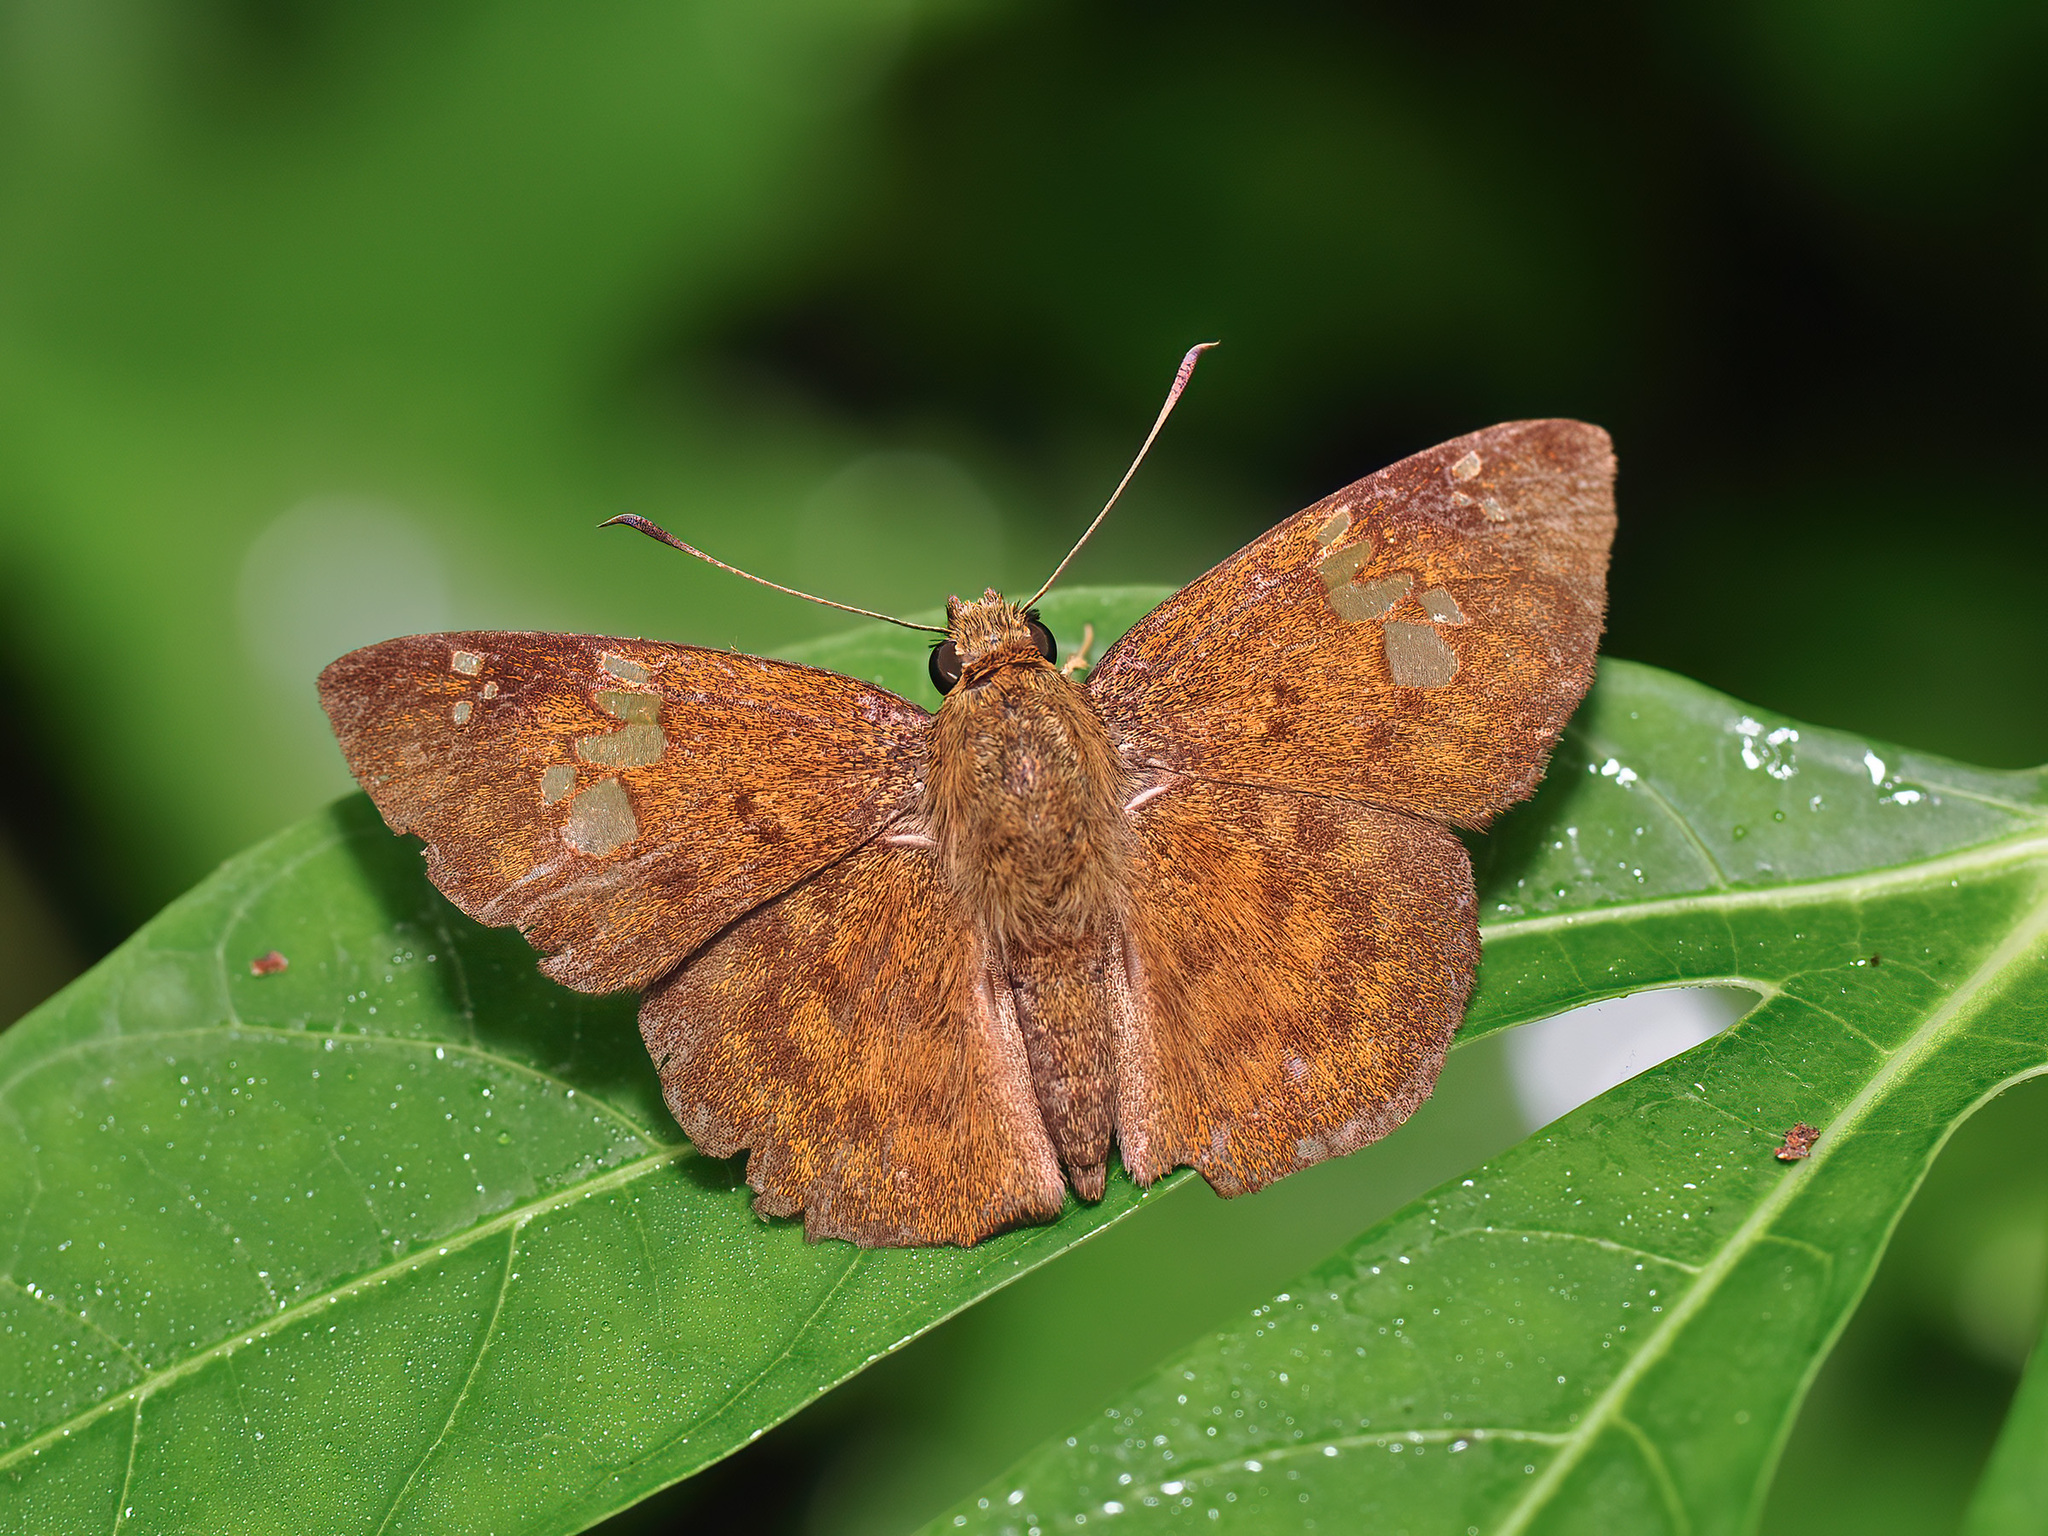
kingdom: Animalia
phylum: Arthropoda
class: Insecta
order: Lepidoptera
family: Hesperiidae
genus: Pseudocoladenia
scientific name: Pseudocoladenia dan
